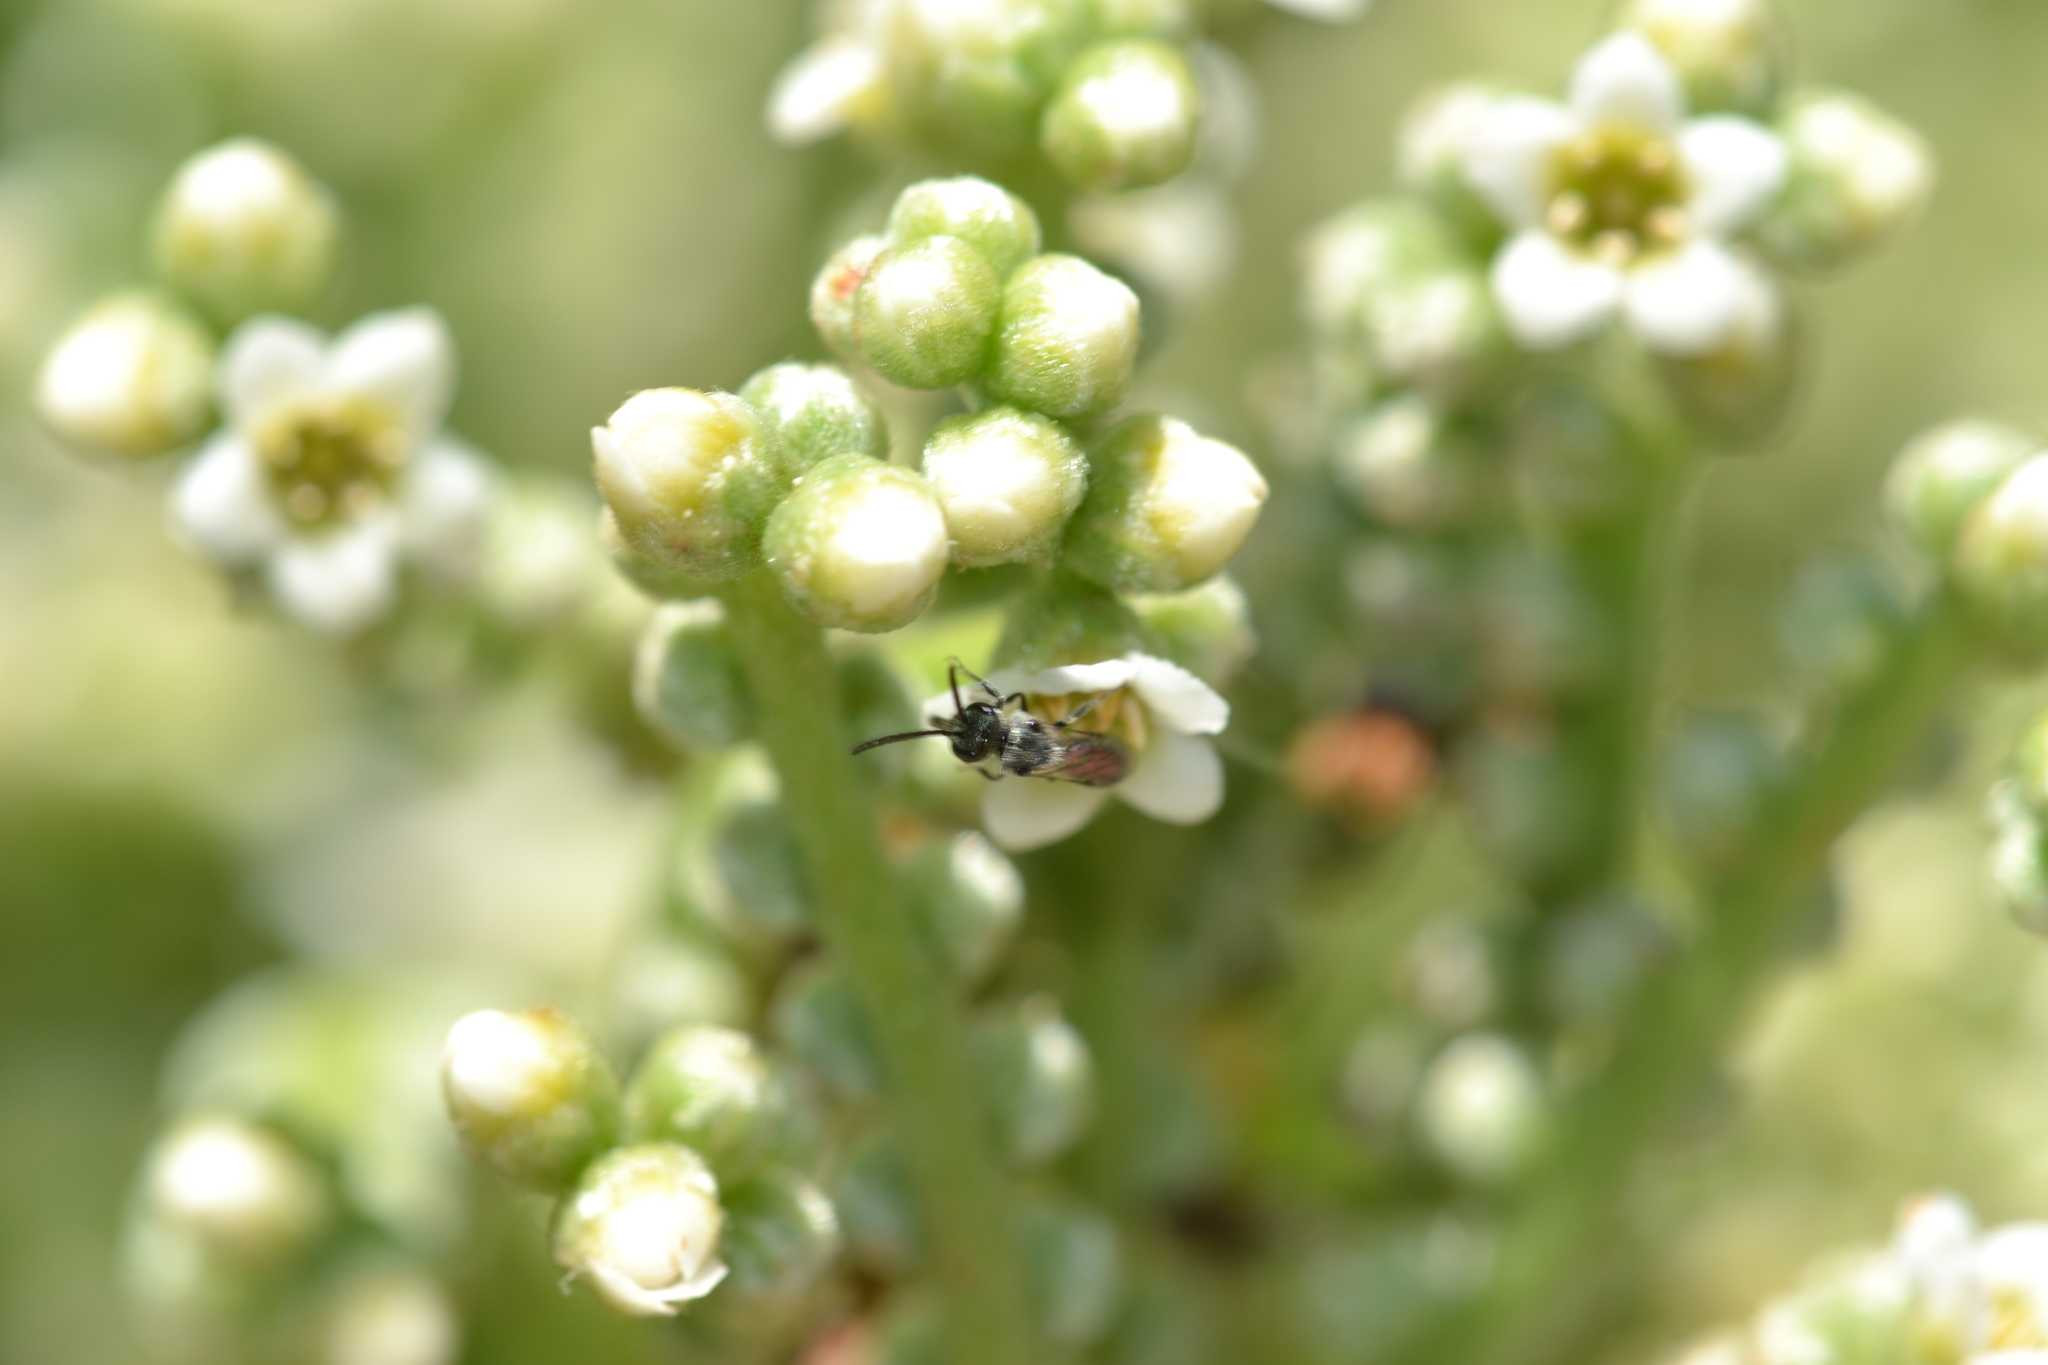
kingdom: Animalia
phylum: Arthropoda
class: Insecta
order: Hymenoptera
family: Halictidae
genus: Lasioglossum
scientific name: Lasioglossum impavidum
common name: Halictid bee
